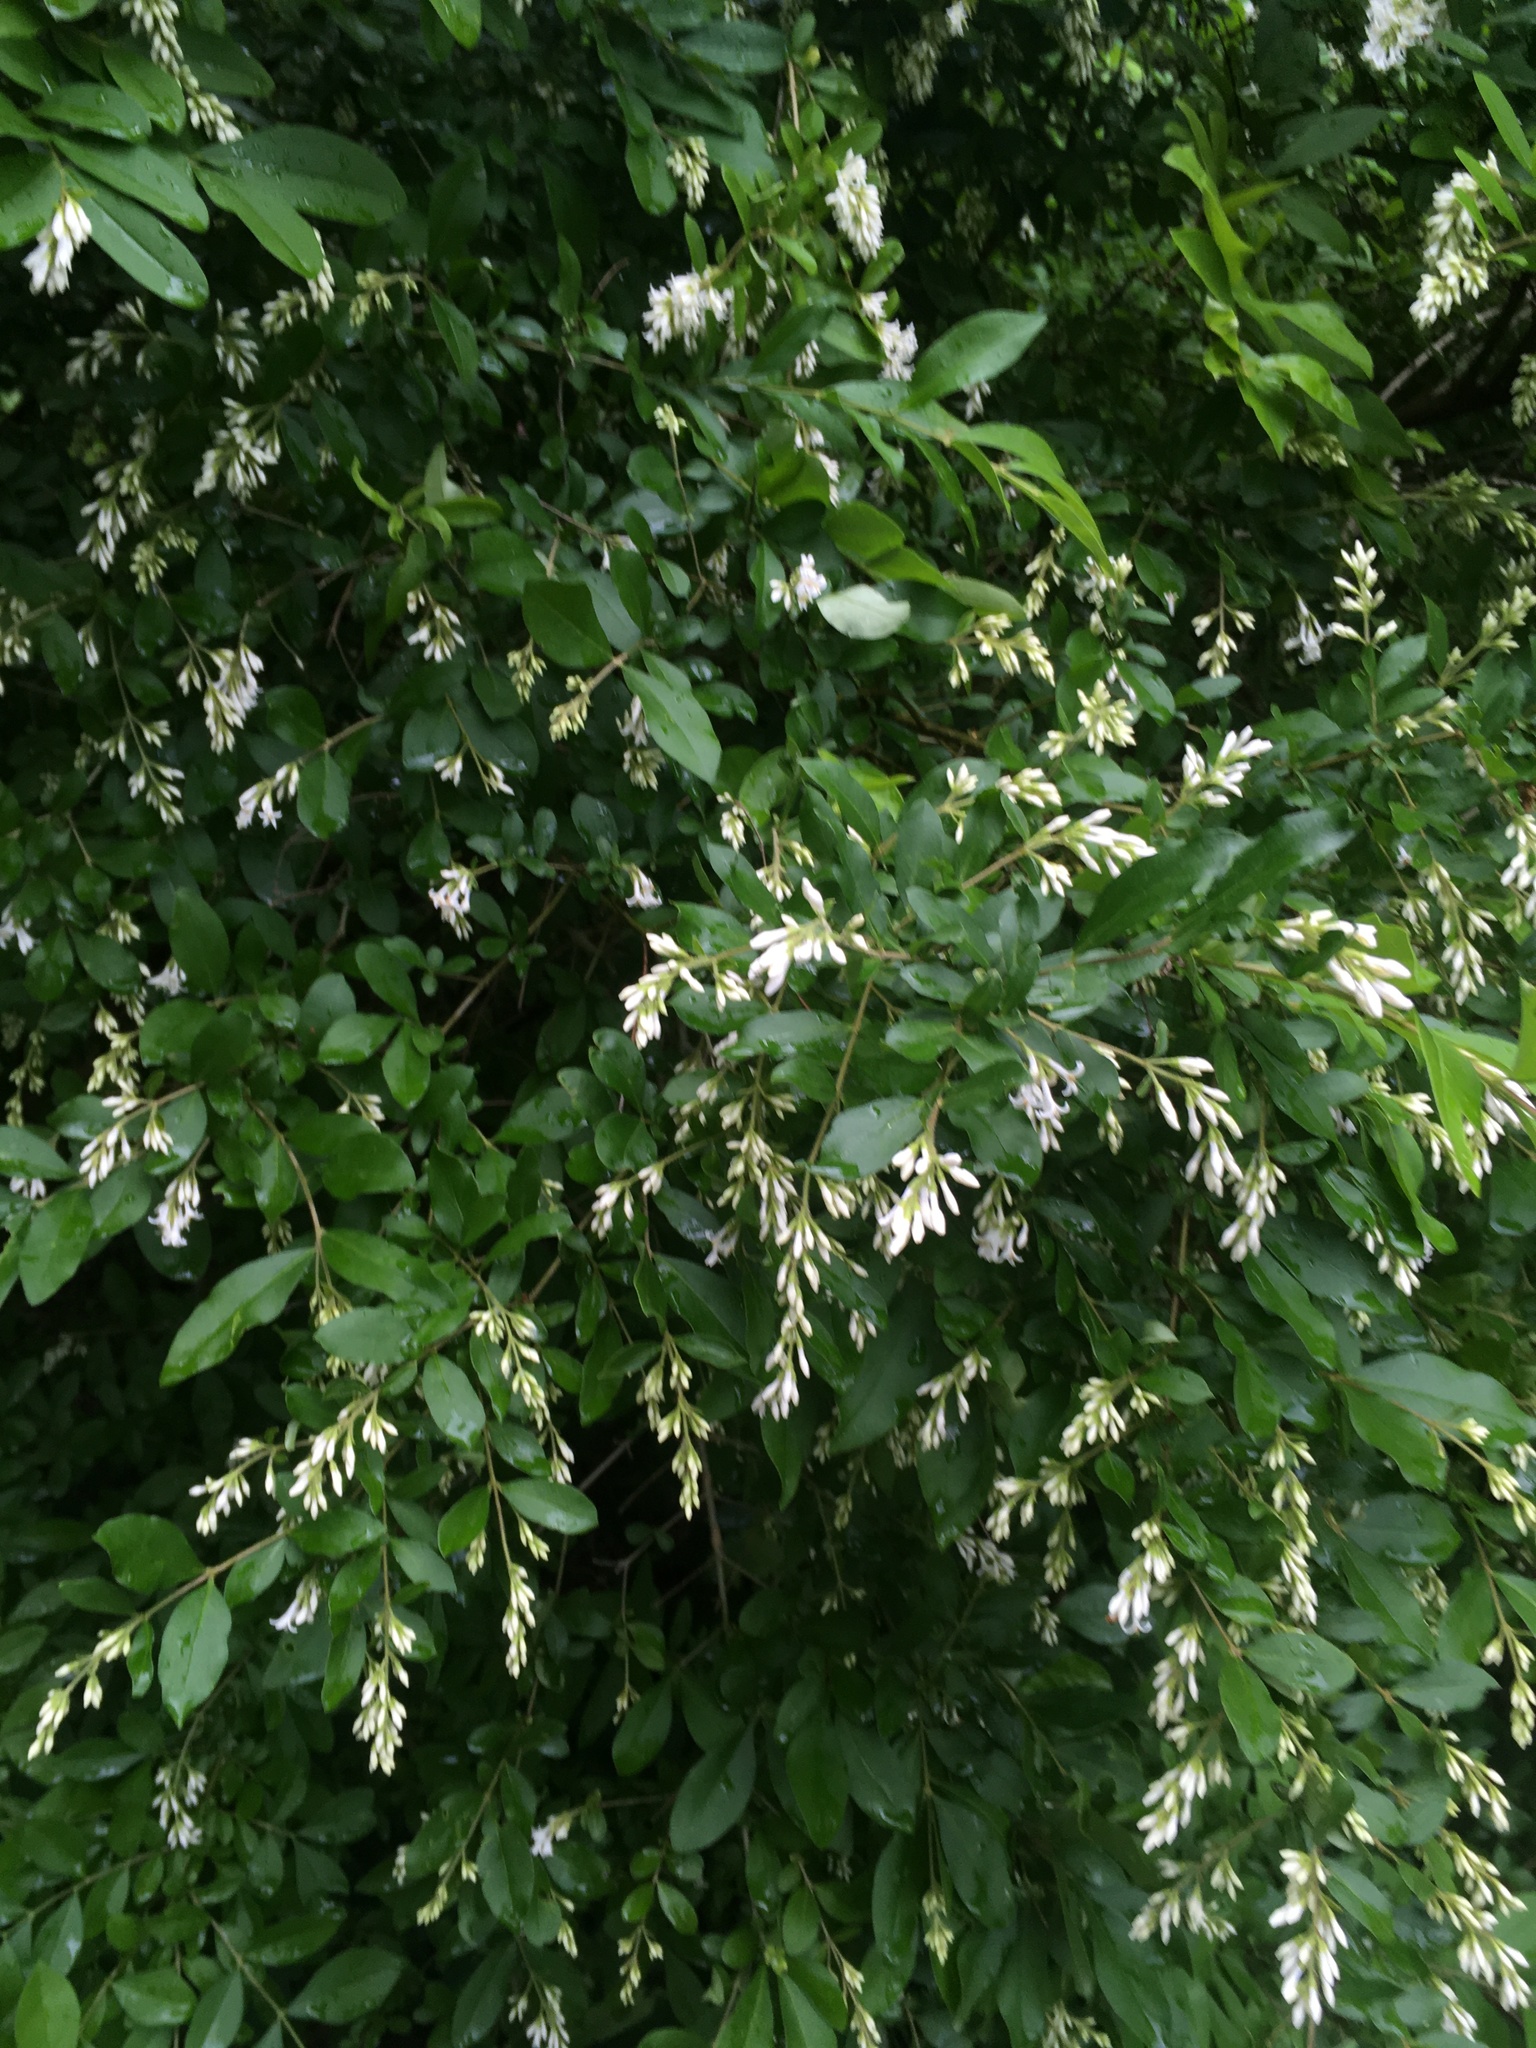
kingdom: Plantae
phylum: Tracheophyta
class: Magnoliopsida
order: Lamiales
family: Oleaceae
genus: Ligustrum
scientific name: Ligustrum obtusifolium
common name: Border privet
